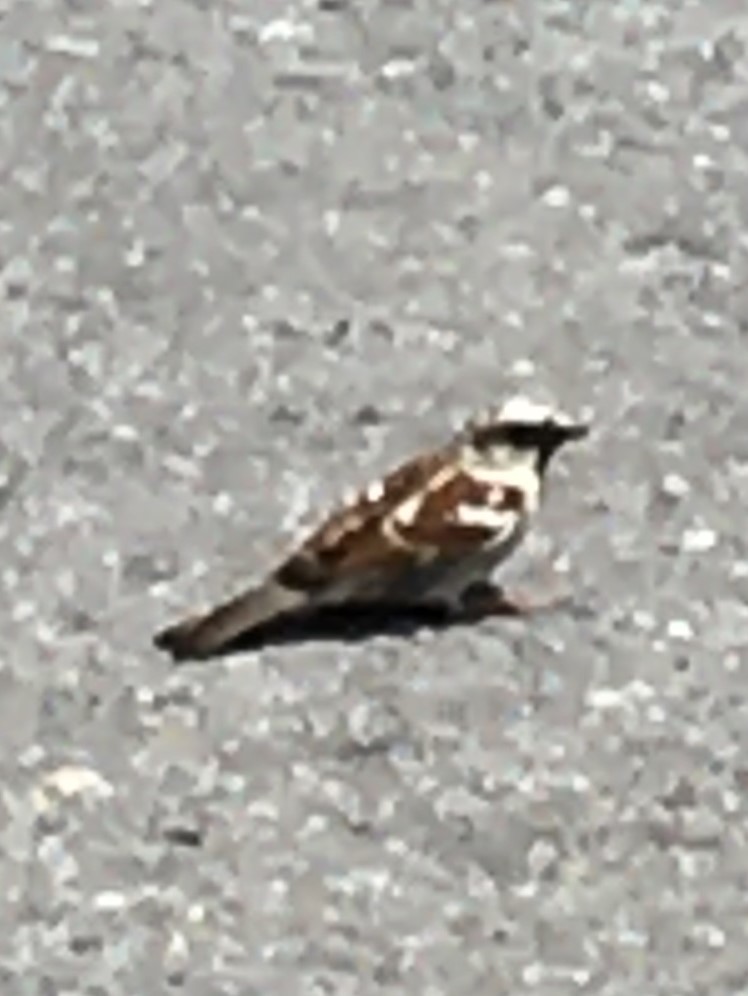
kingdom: Animalia
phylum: Chordata
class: Aves
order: Passeriformes
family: Passeridae
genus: Passer
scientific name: Passer domesticus
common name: House sparrow
